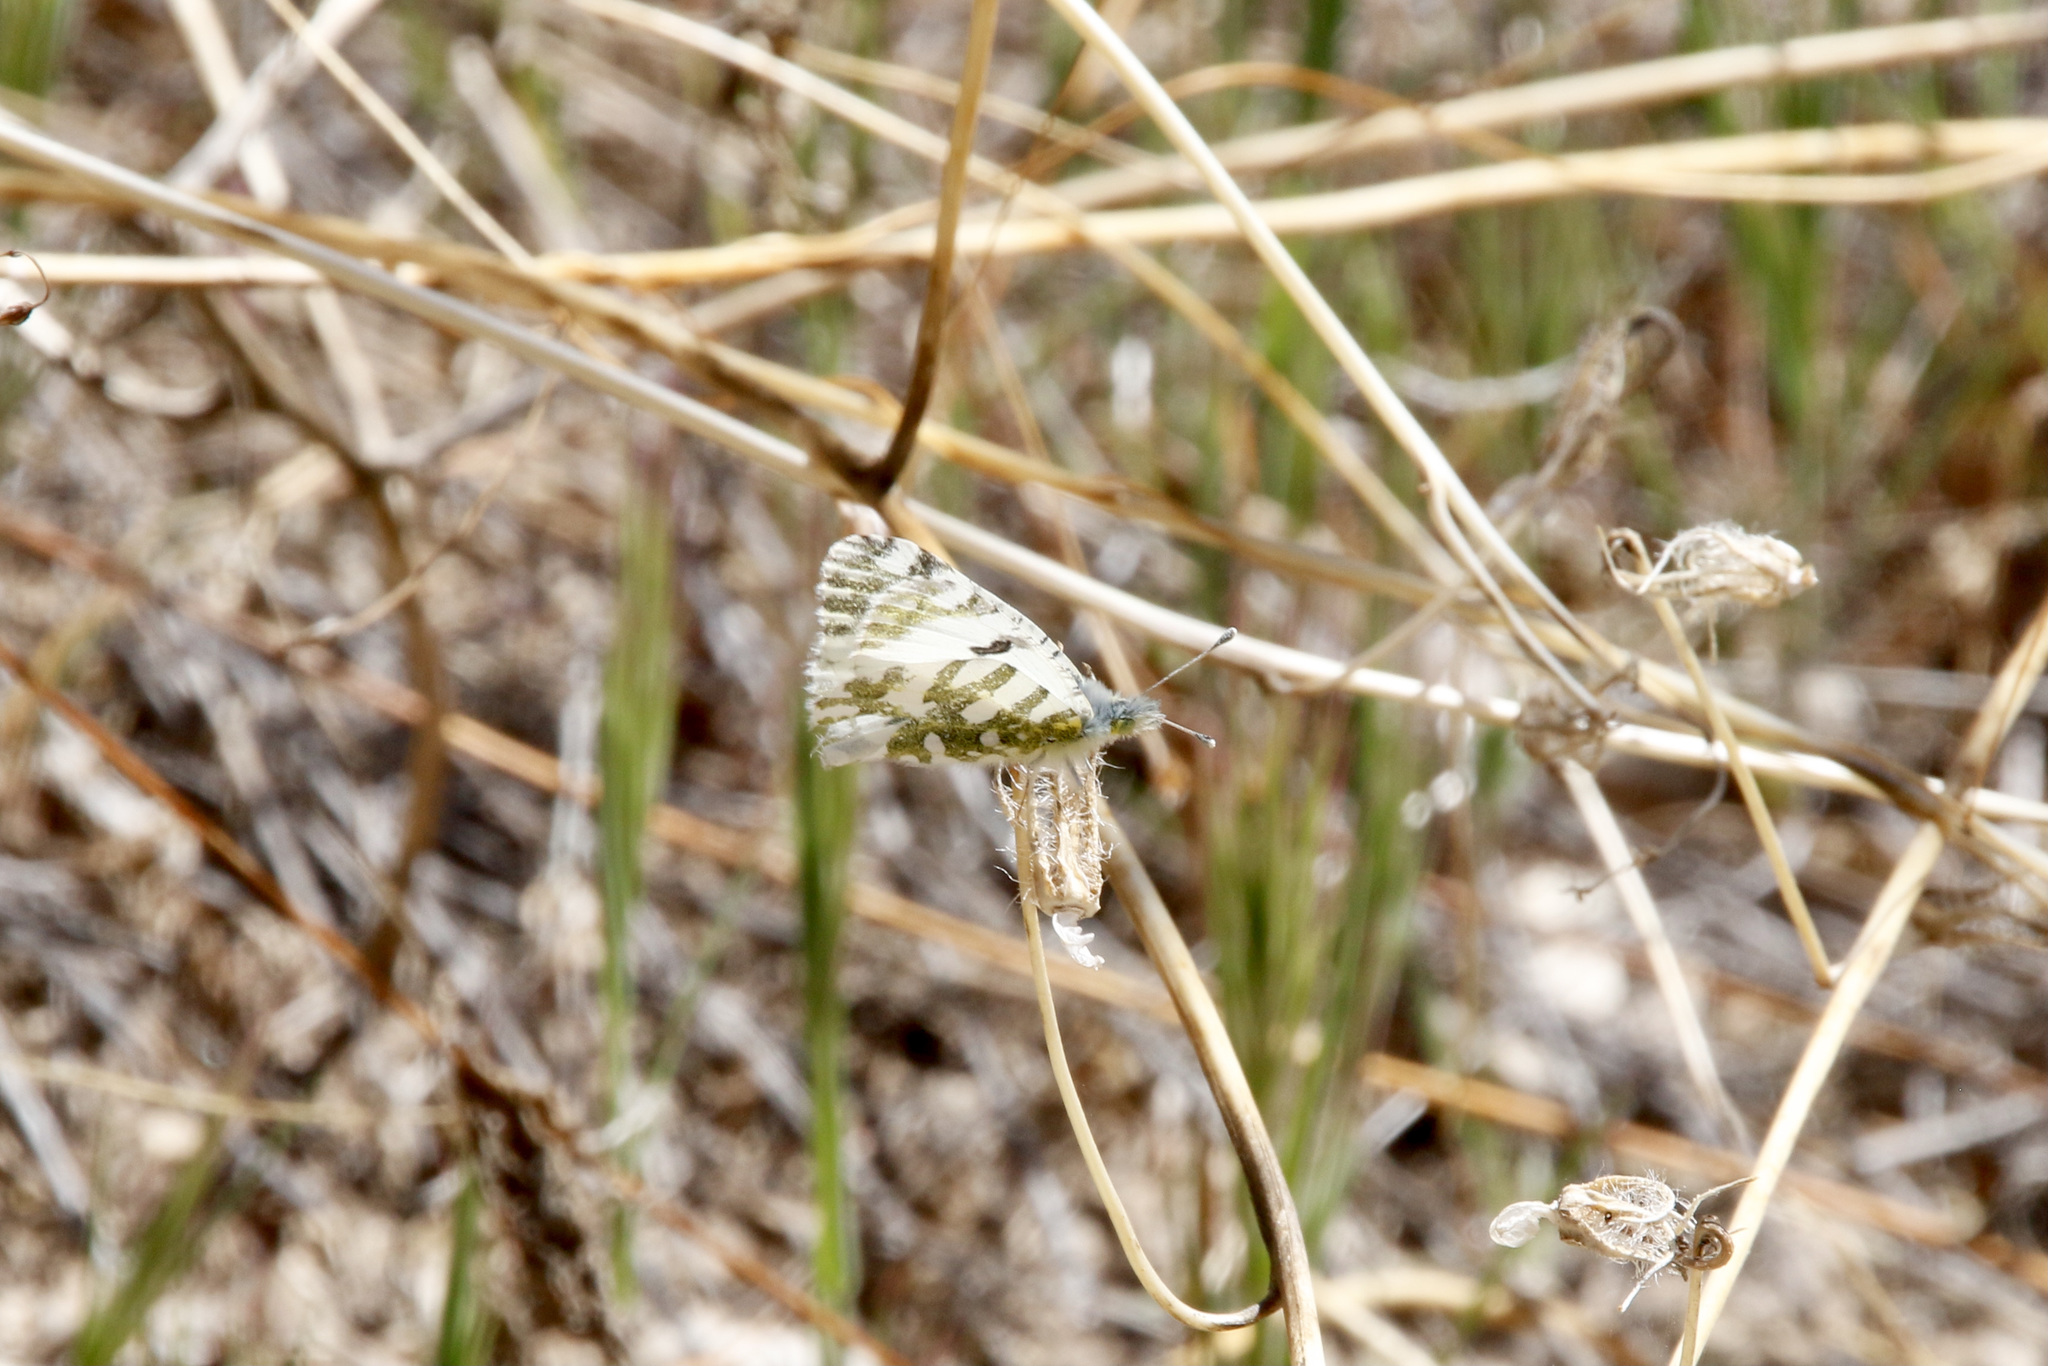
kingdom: Animalia
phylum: Arthropoda
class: Insecta
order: Lepidoptera
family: Pieridae
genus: Euchloe
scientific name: Euchloe lotta
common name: Desert marble
